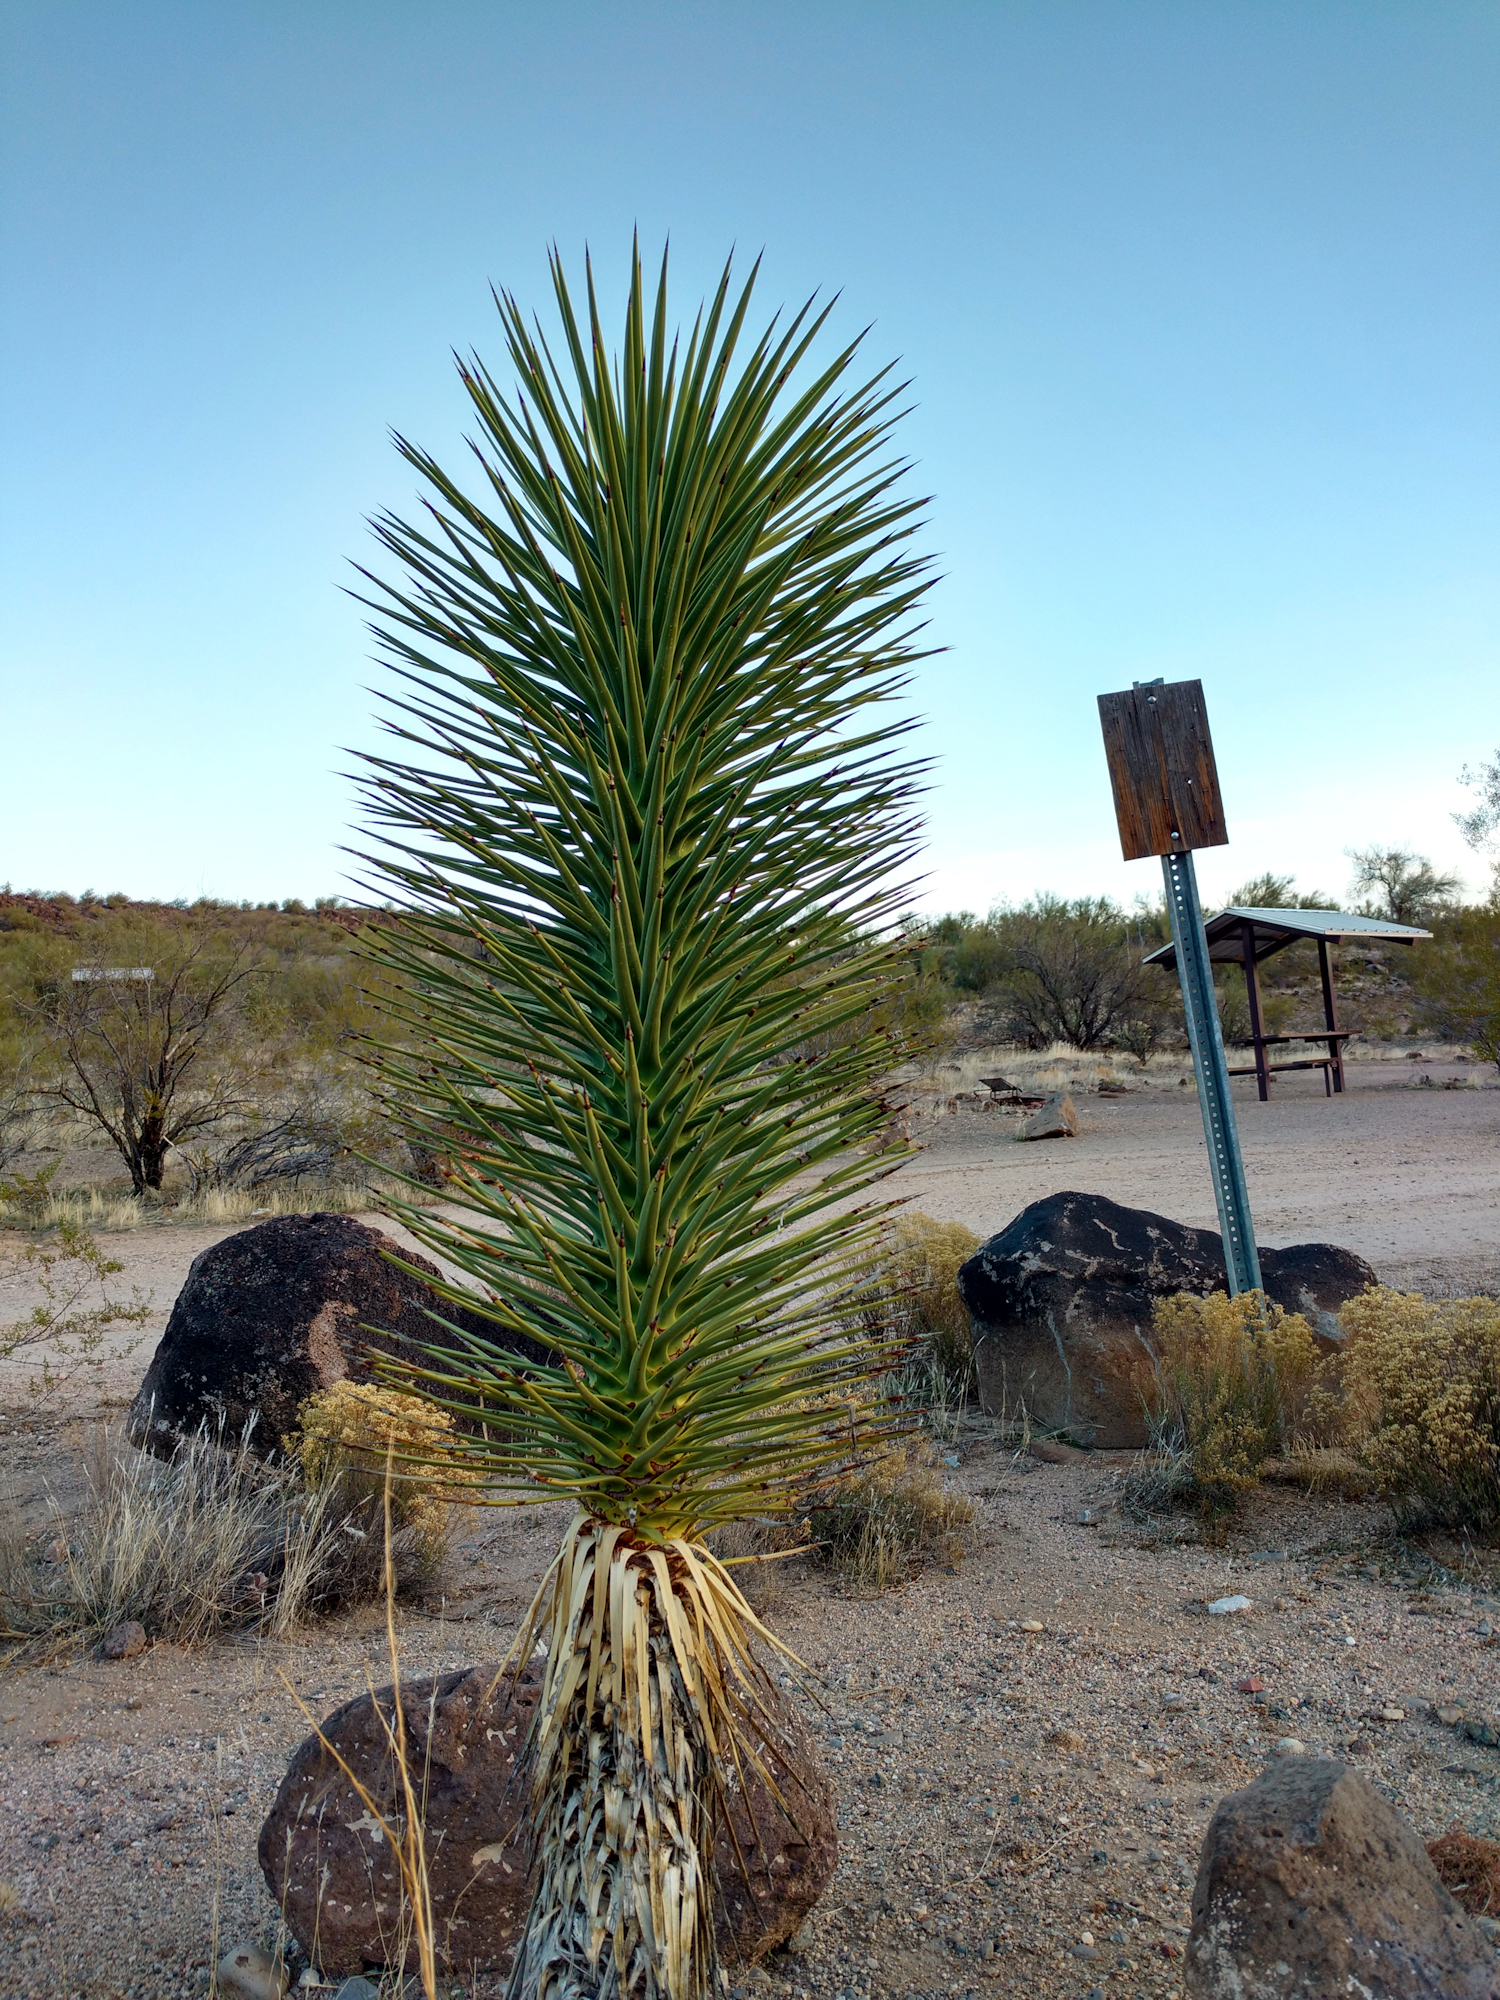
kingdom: Plantae
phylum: Tracheophyta
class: Liliopsida
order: Asparagales
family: Asparagaceae
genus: Yucca
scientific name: Yucca brevifolia
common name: Joshua tree
